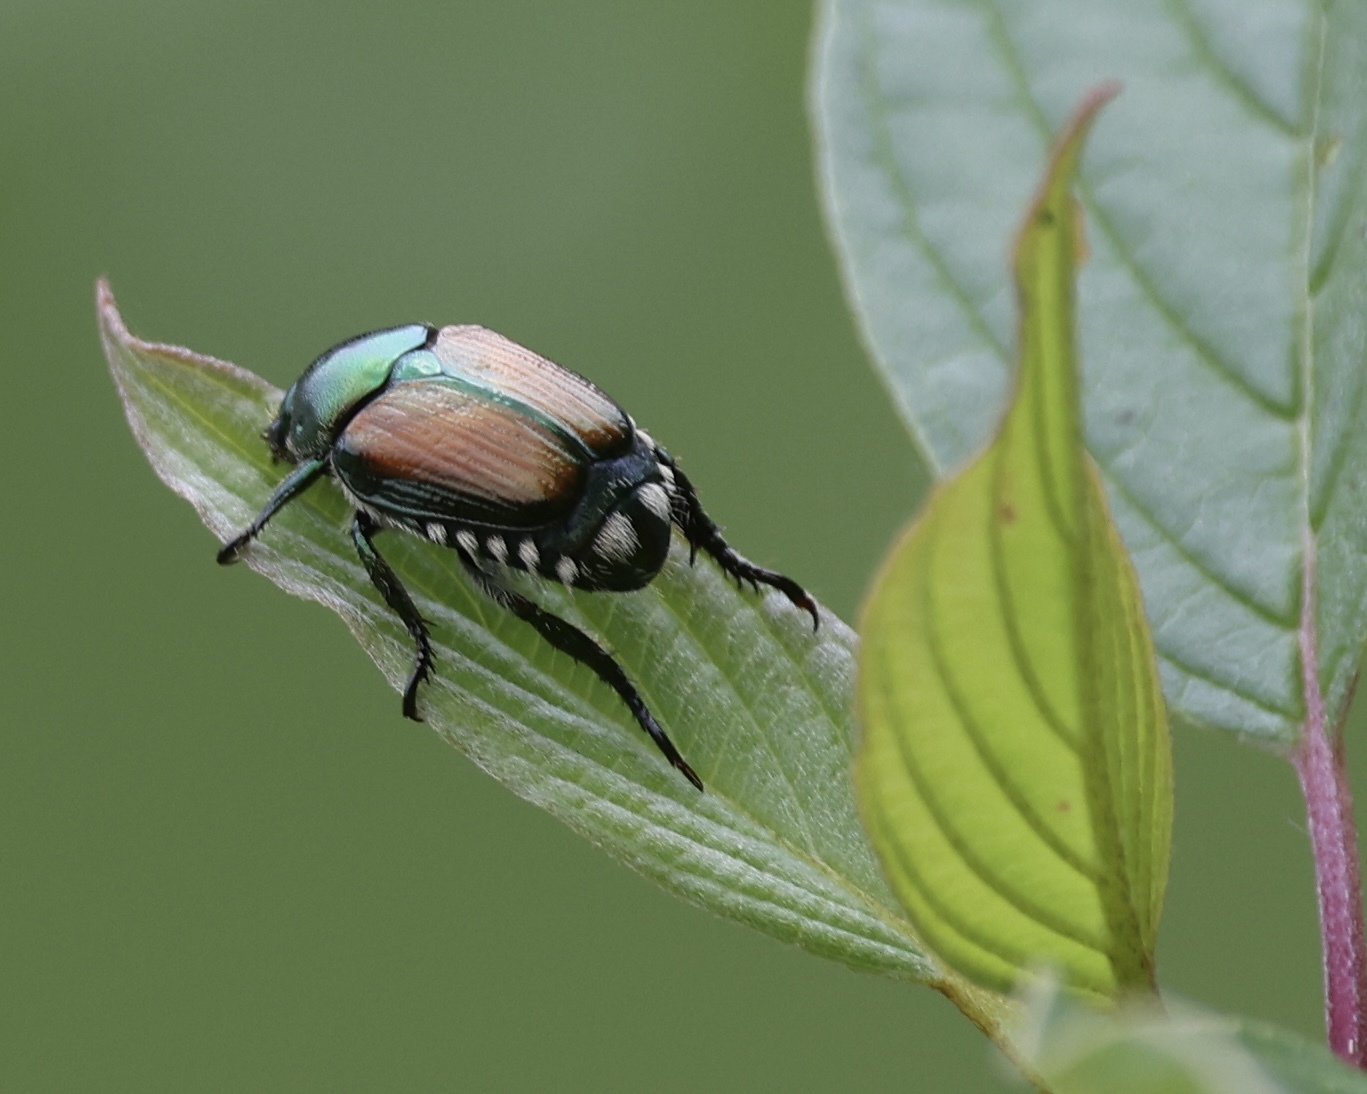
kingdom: Animalia
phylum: Arthropoda
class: Insecta
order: Coleoptera
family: Scarabaeidae
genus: Popillia
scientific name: Popillia japonica
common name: Japanese beetle
